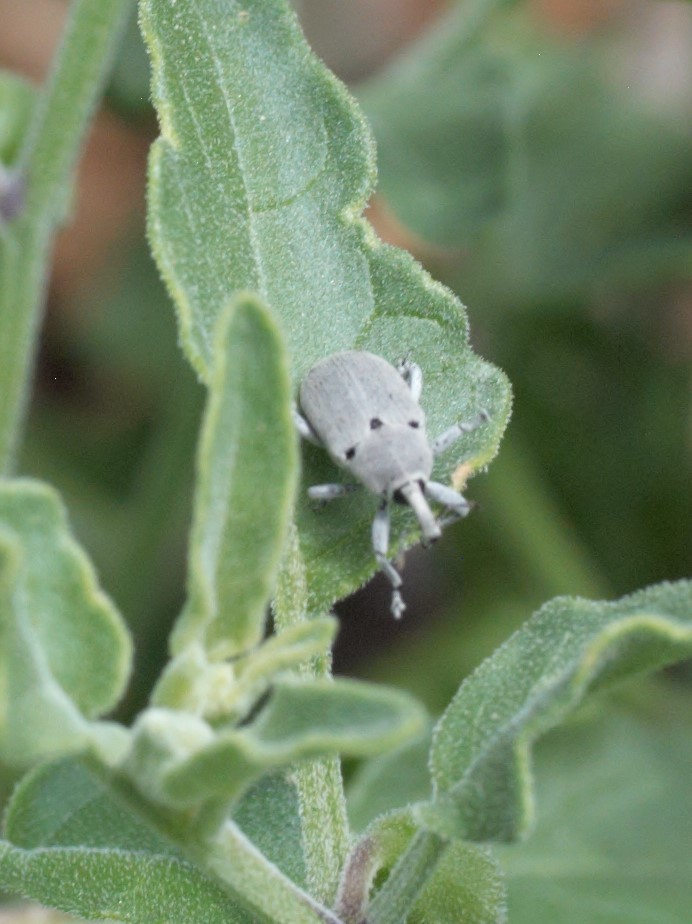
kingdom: Animalia
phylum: Arthropoda
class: Insecta
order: Coleoptera
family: Curculionidae
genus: Trichobaris
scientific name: Trichobaris
